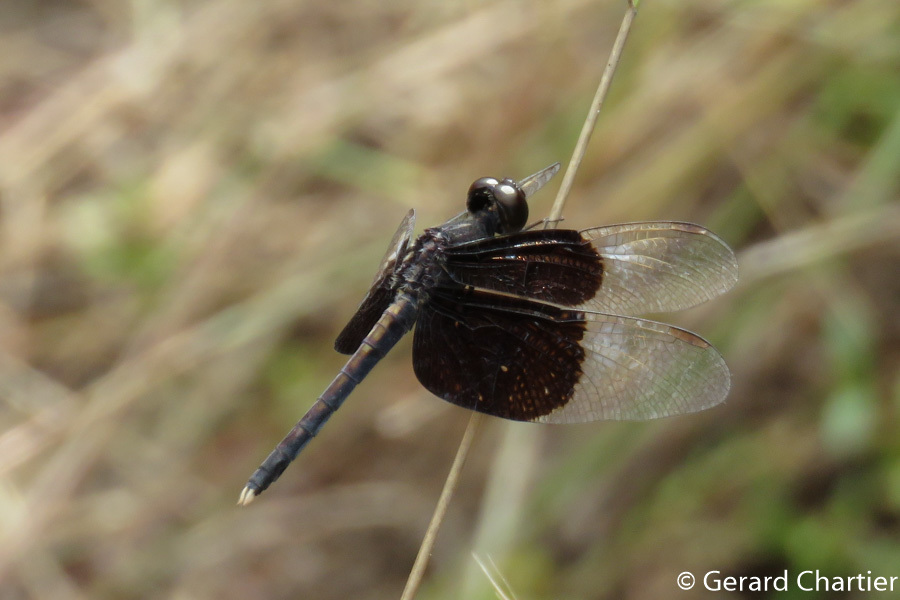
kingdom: Animalia
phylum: Arthropoda
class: Insecta
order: Odonata
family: Libellulidae
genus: Neurothemis
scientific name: Neurothemis tullia
